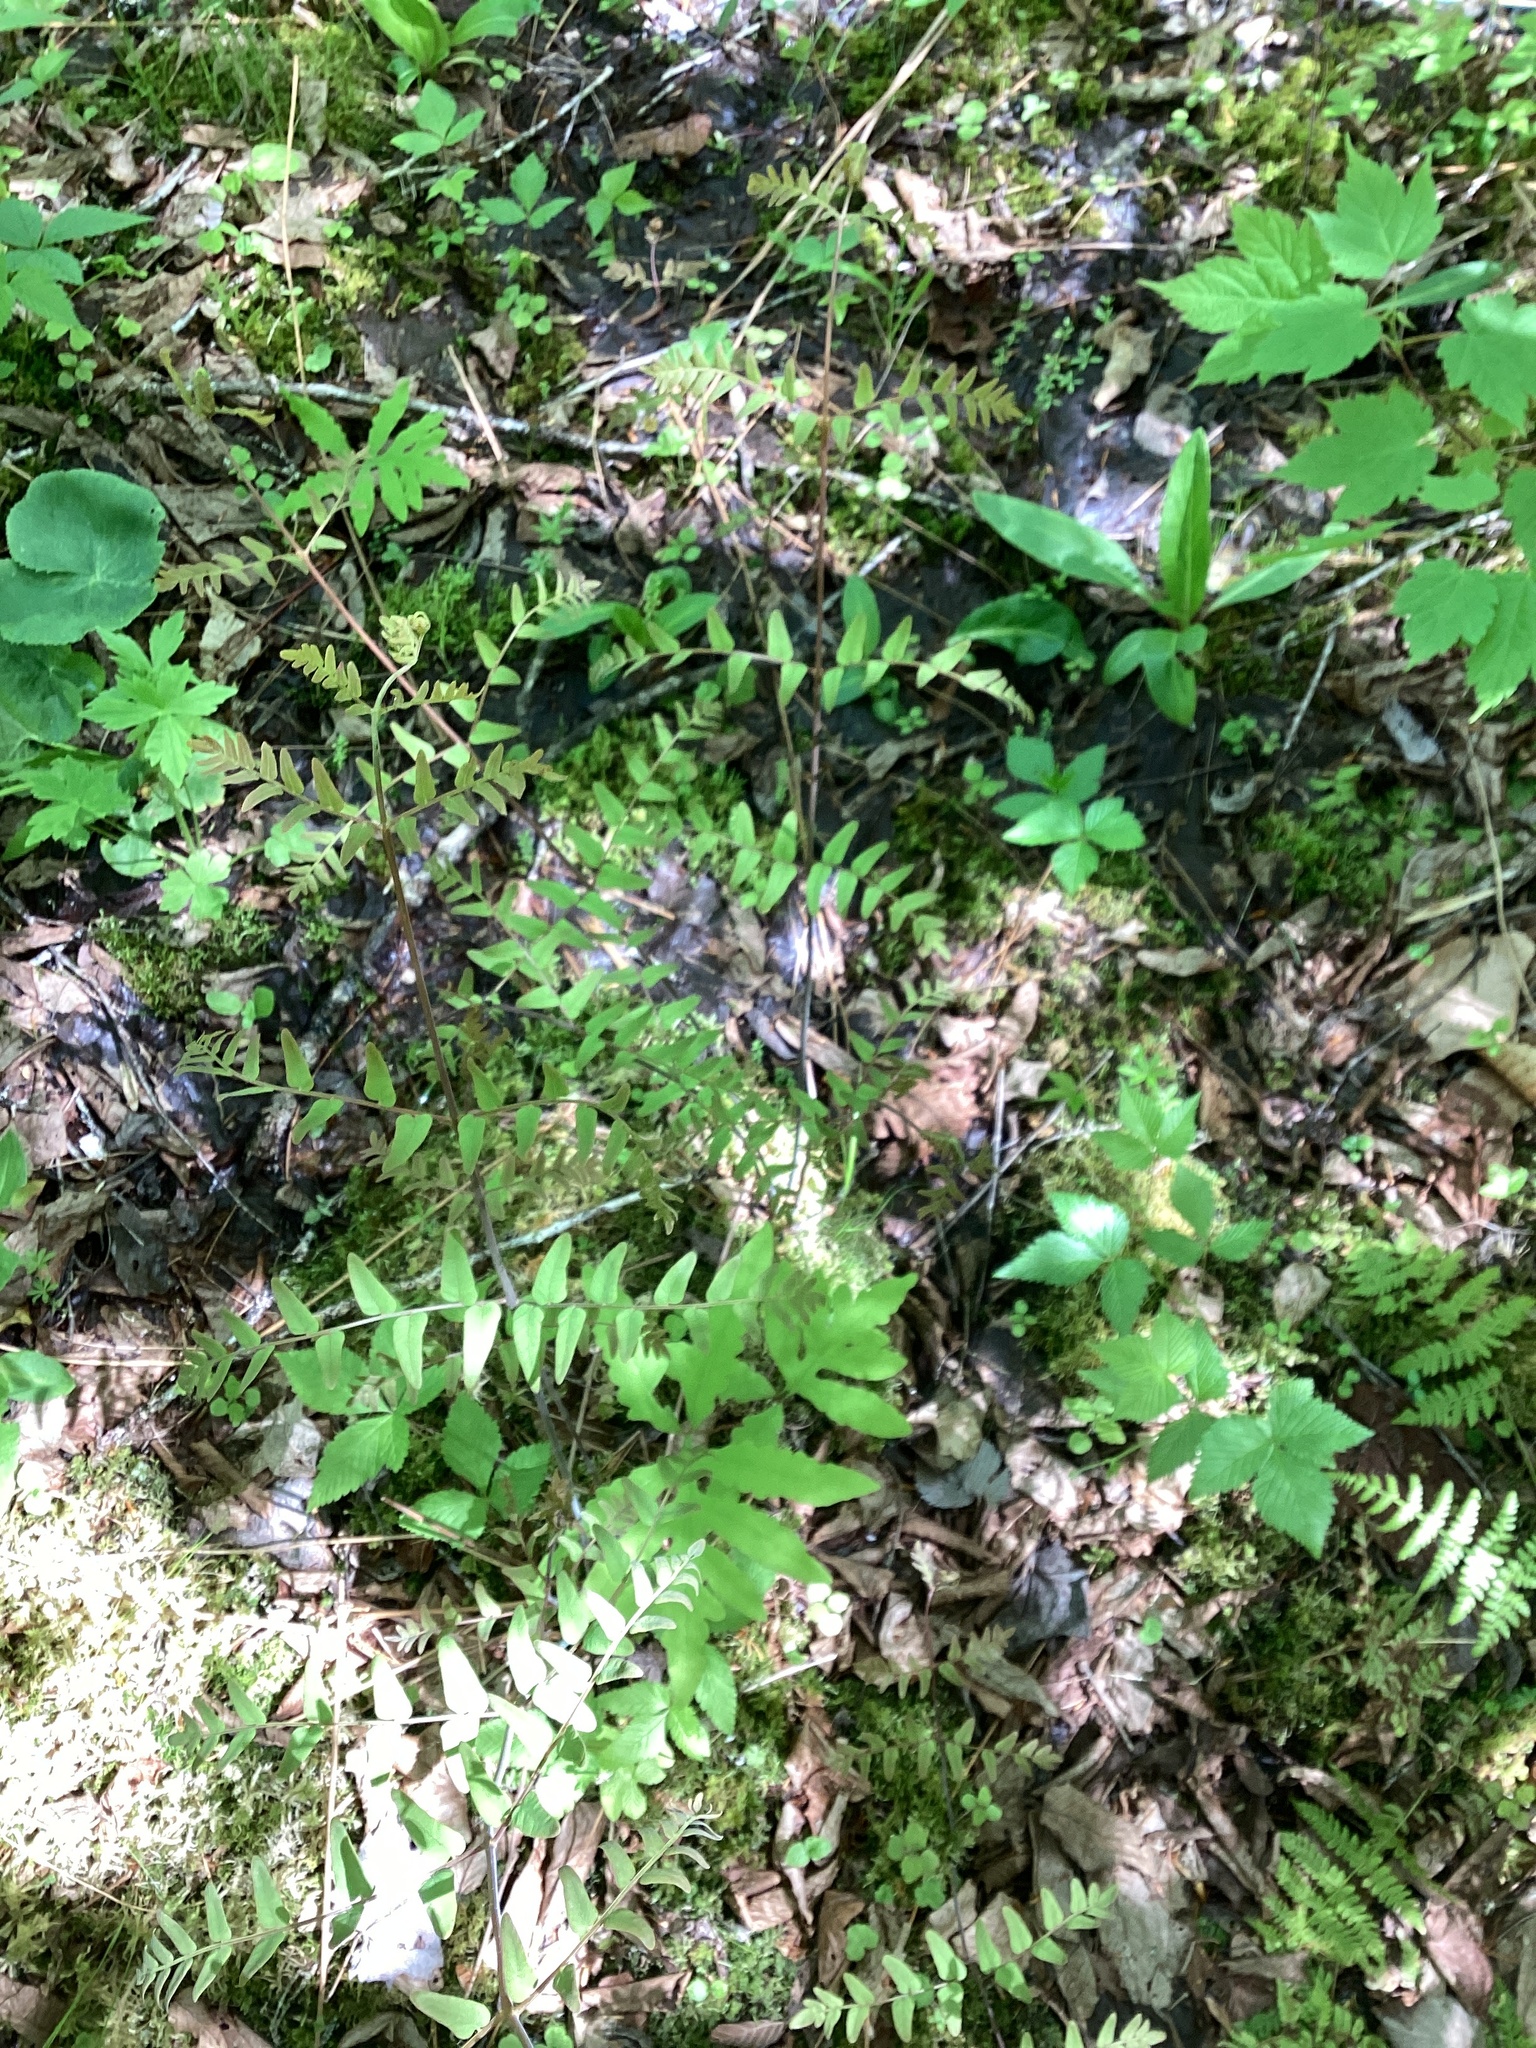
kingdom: Plantae
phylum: Tracheophyta
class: Polypodiopsida
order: Osmundales
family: Osmundaceae
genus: Osmunda
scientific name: Osmunda spectabilis
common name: American royal fern
